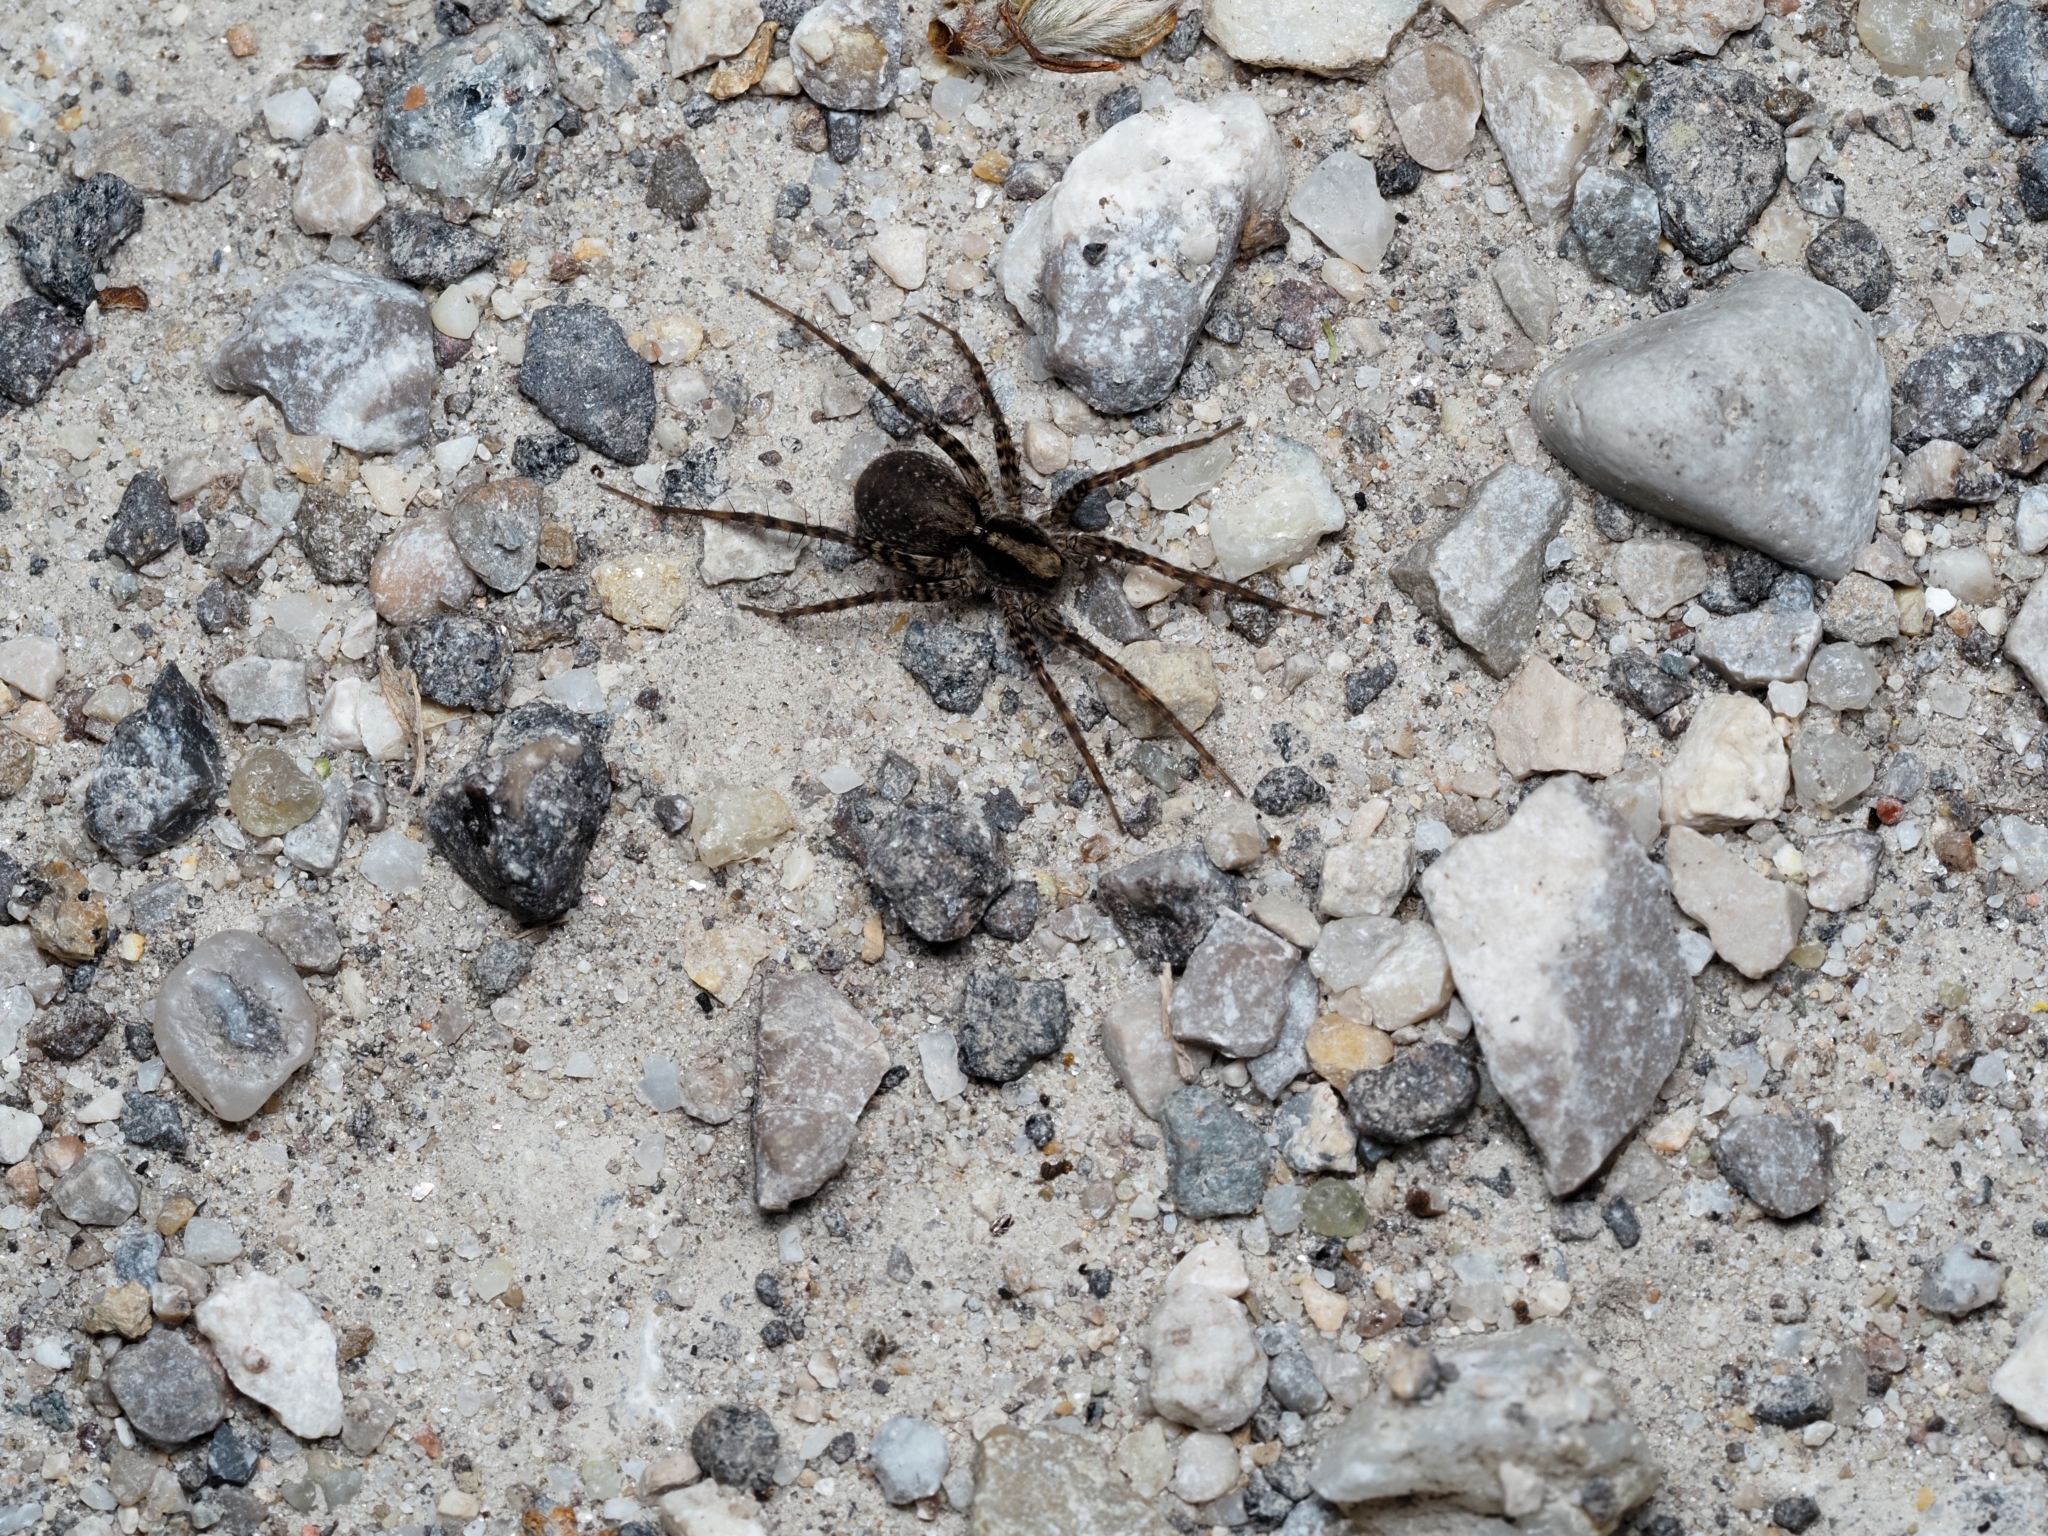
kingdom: Animalia
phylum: Arthropoda
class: Arachnida
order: Araneae
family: Lycosidae
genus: Pardosa
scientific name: Pardosa
